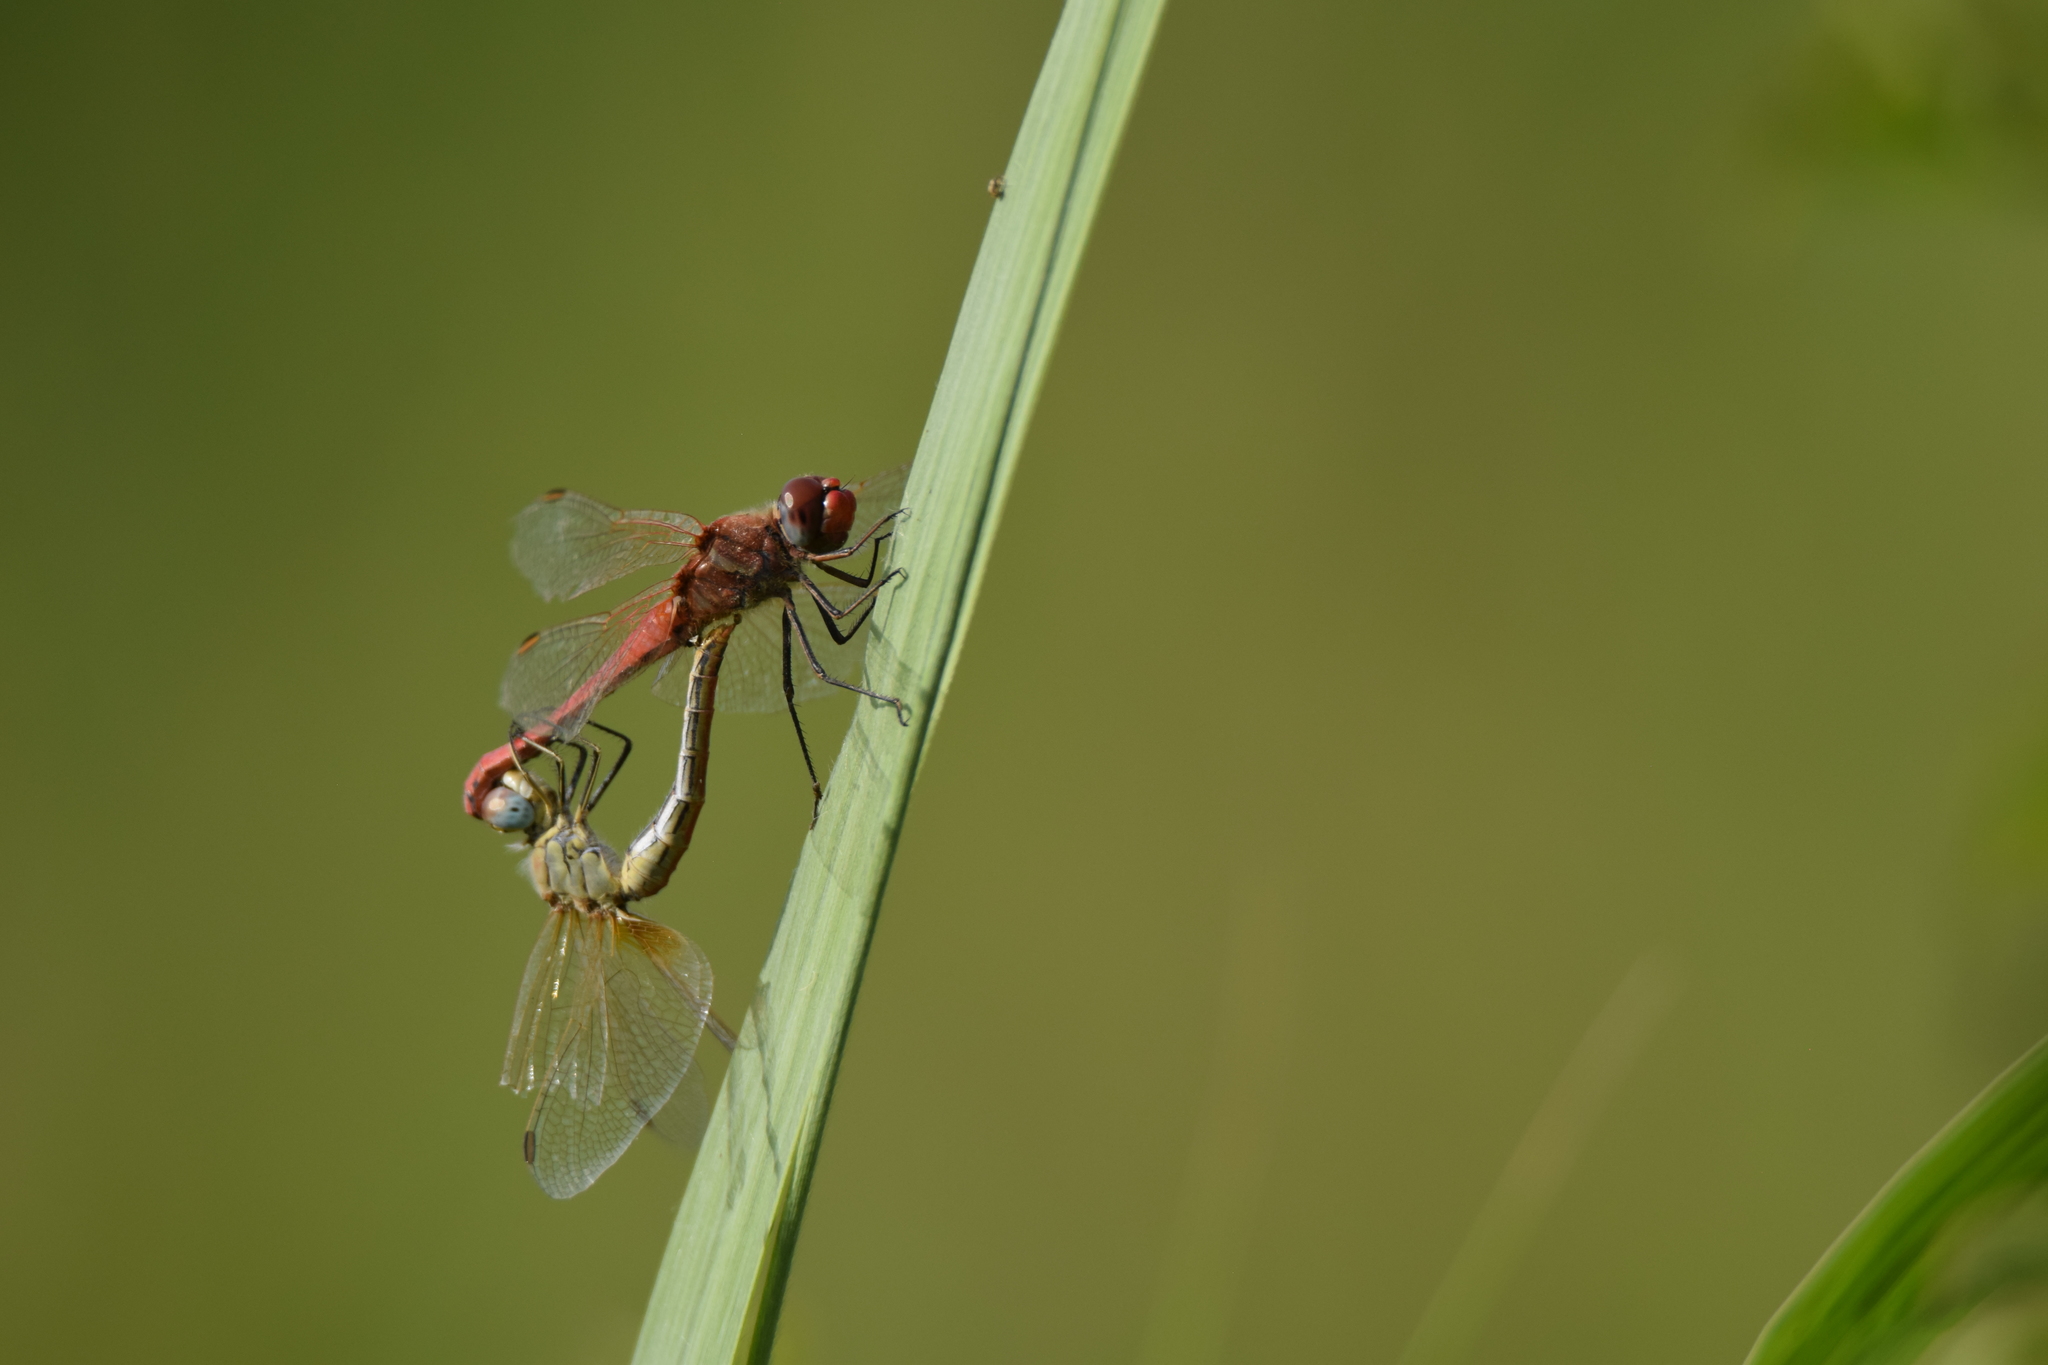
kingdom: Animalia
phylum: Arthropoda
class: Insecta
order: Odonata
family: Libellulidae
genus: Sympetrum
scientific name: Sympetrum fonscolombii
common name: Red-veined darter
